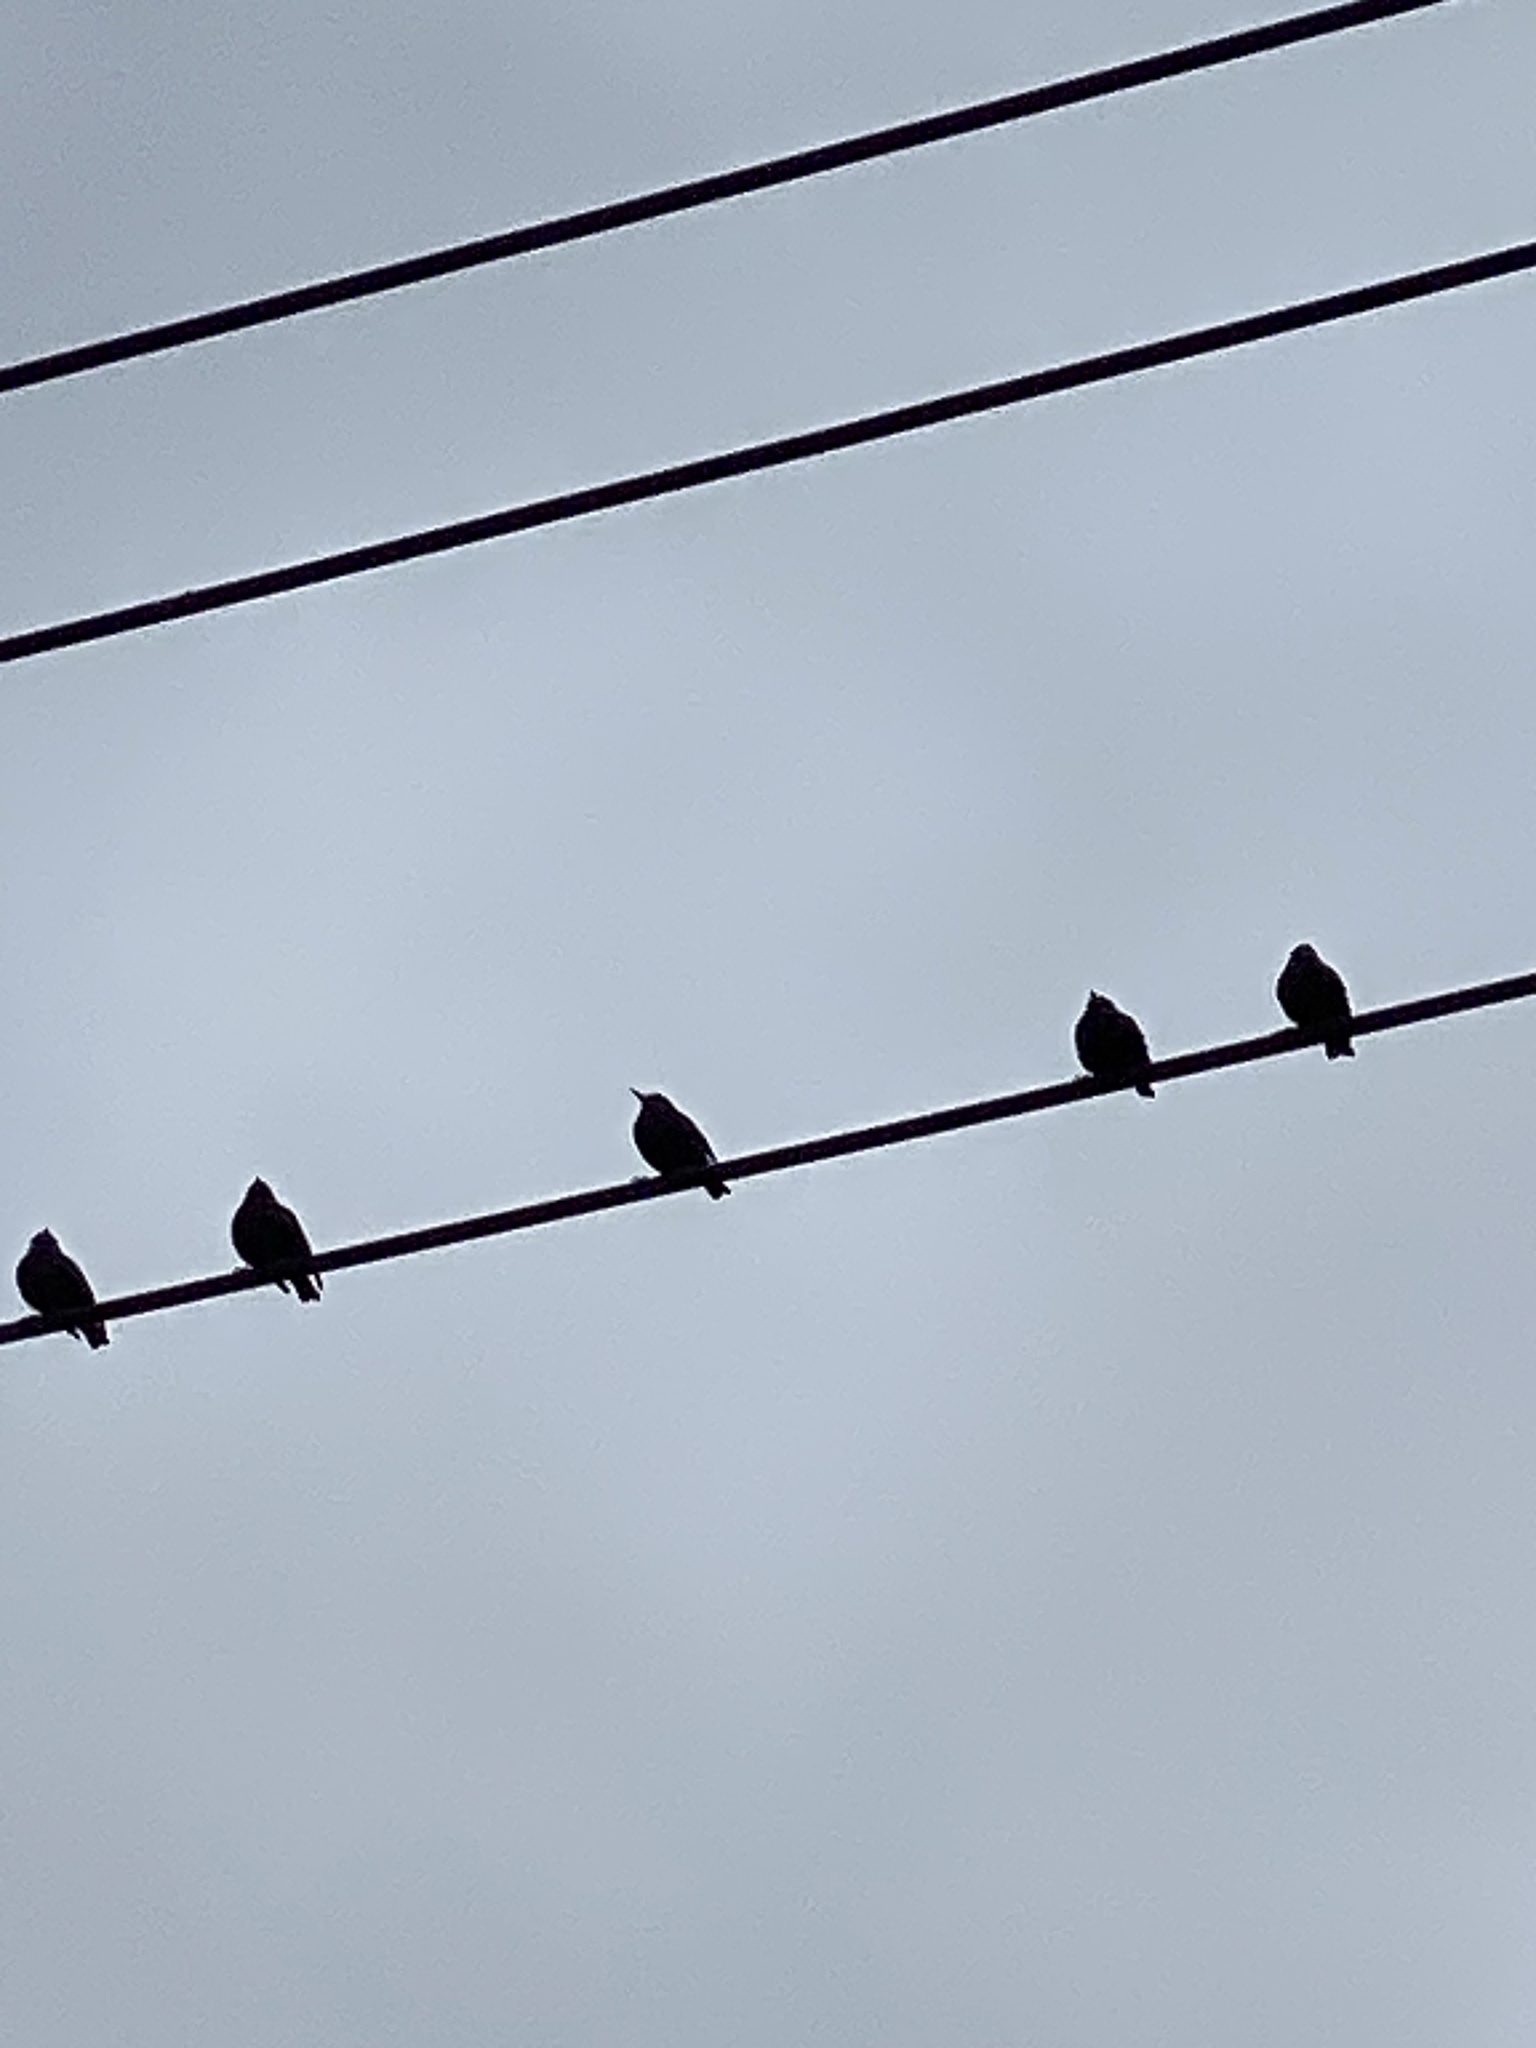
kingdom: Animalia
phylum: Chordata
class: Aves
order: Passeriformes
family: Sturnidae
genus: Sturnus
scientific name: Sturnus vulgaris
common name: Common starling
